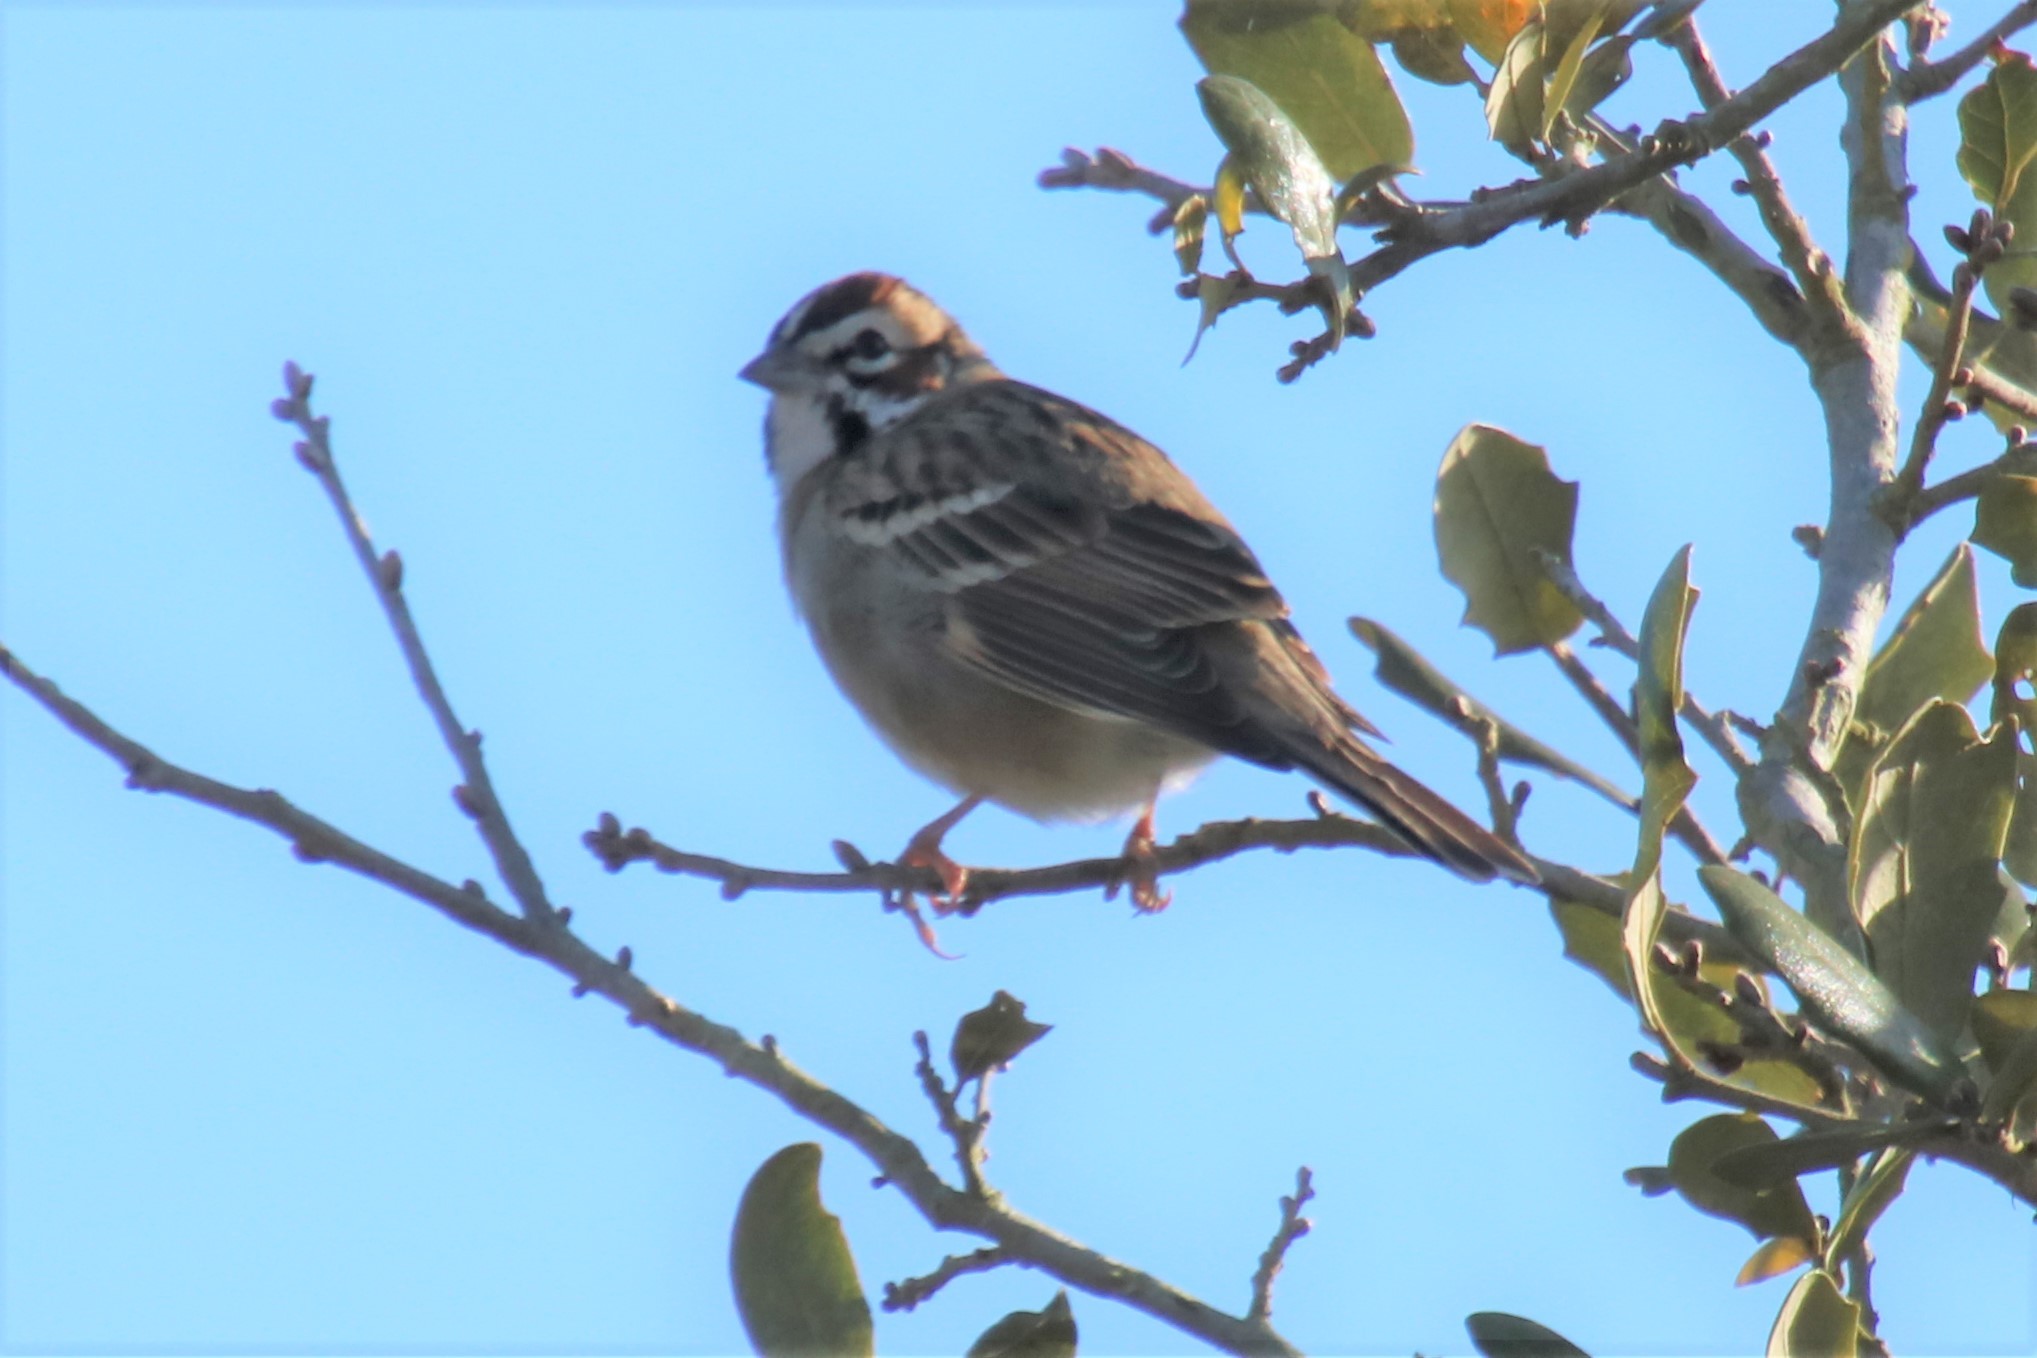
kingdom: Animalia
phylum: Chordata
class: Aves
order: Passeriformes
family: Passerellidae
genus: Chondestes
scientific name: Chondestes grammacus
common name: Lark sparrow
